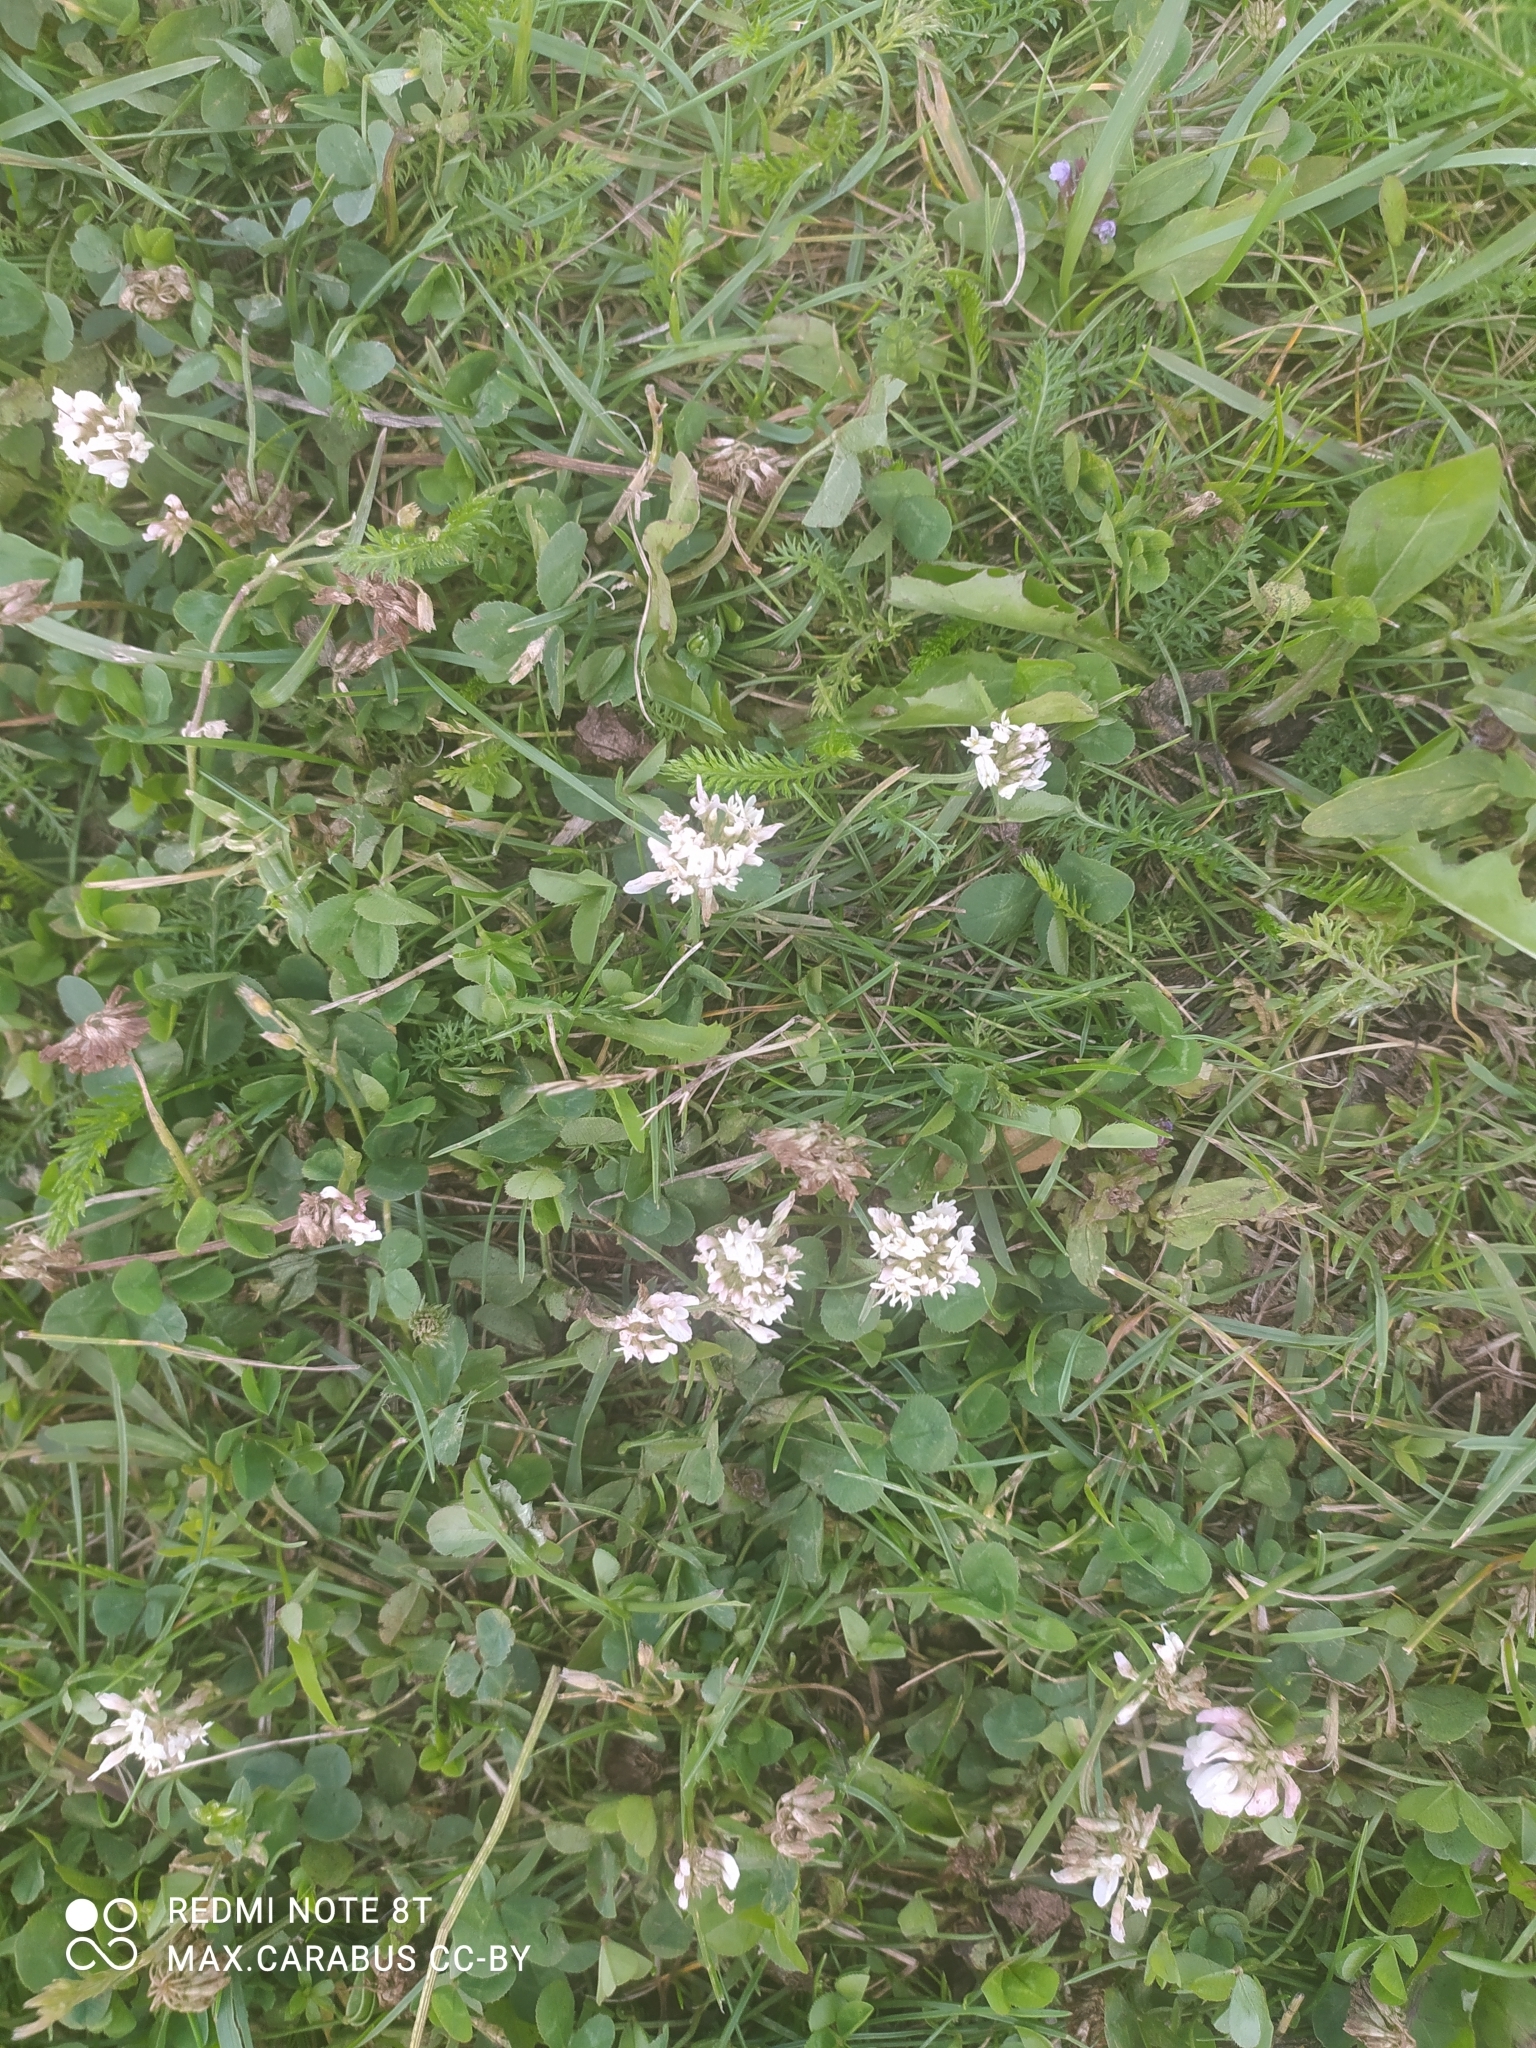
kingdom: Plantae
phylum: Tracheophyta
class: Magnoliopsida
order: Fabales
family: Fabaceae
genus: Trifolium
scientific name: Trifolium repens
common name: White clover
